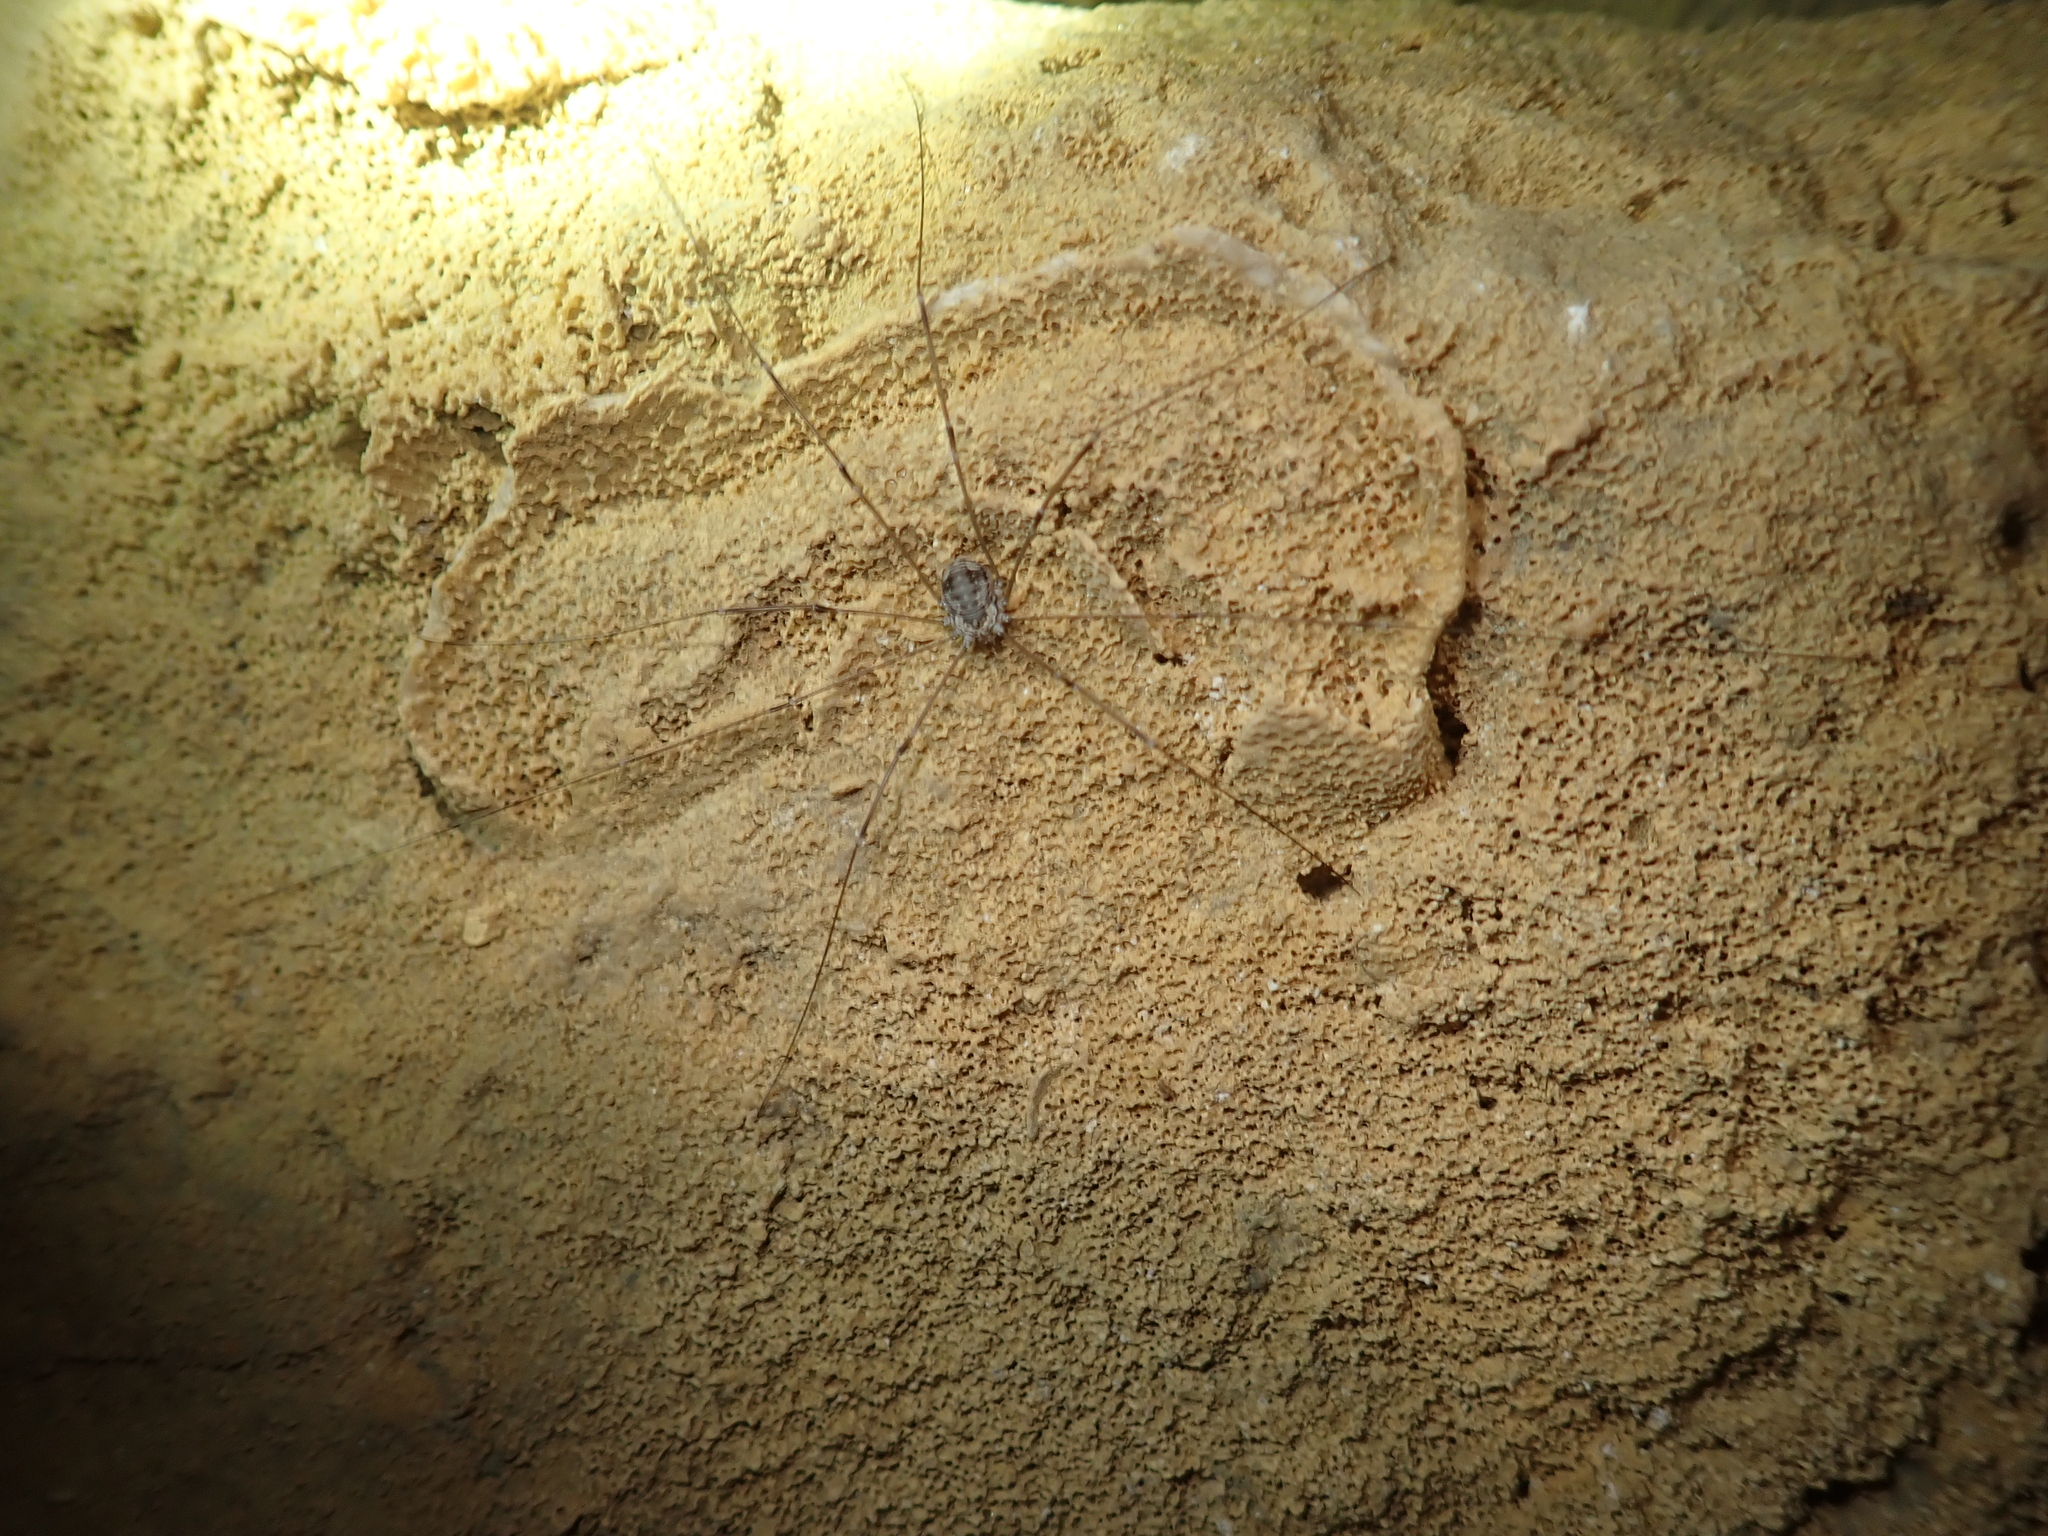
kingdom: Animalia
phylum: Arthropoda
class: Arachnida
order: Opiliones
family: Sclerosomatidae
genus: Leiobunum
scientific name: Leiobunum limbatum
